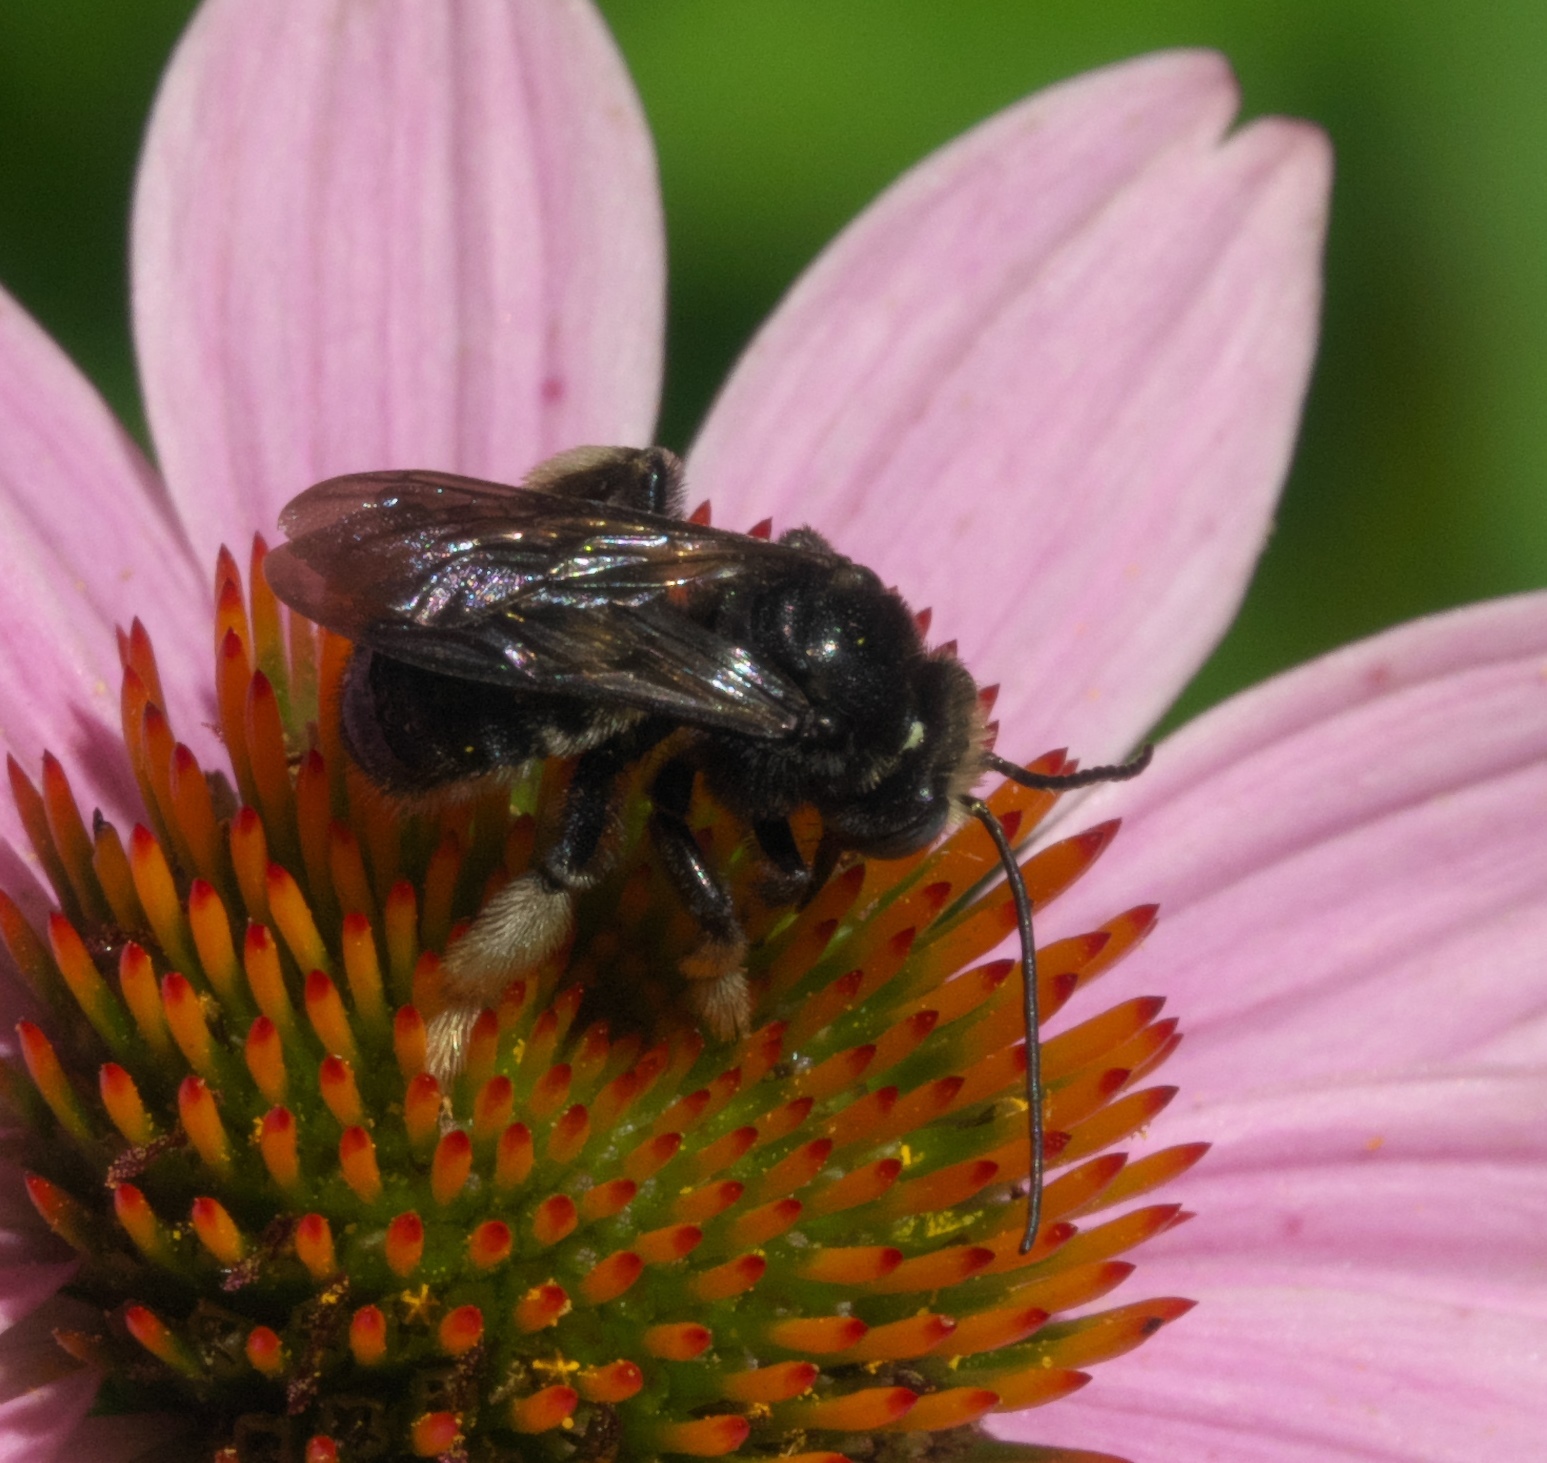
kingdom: Animalia
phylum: Arthropoda
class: Insecta
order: Hymenoptera
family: Apidae
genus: Melissodes
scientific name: Melissodes bimaculatus
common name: Two-spotted long-horned bee
